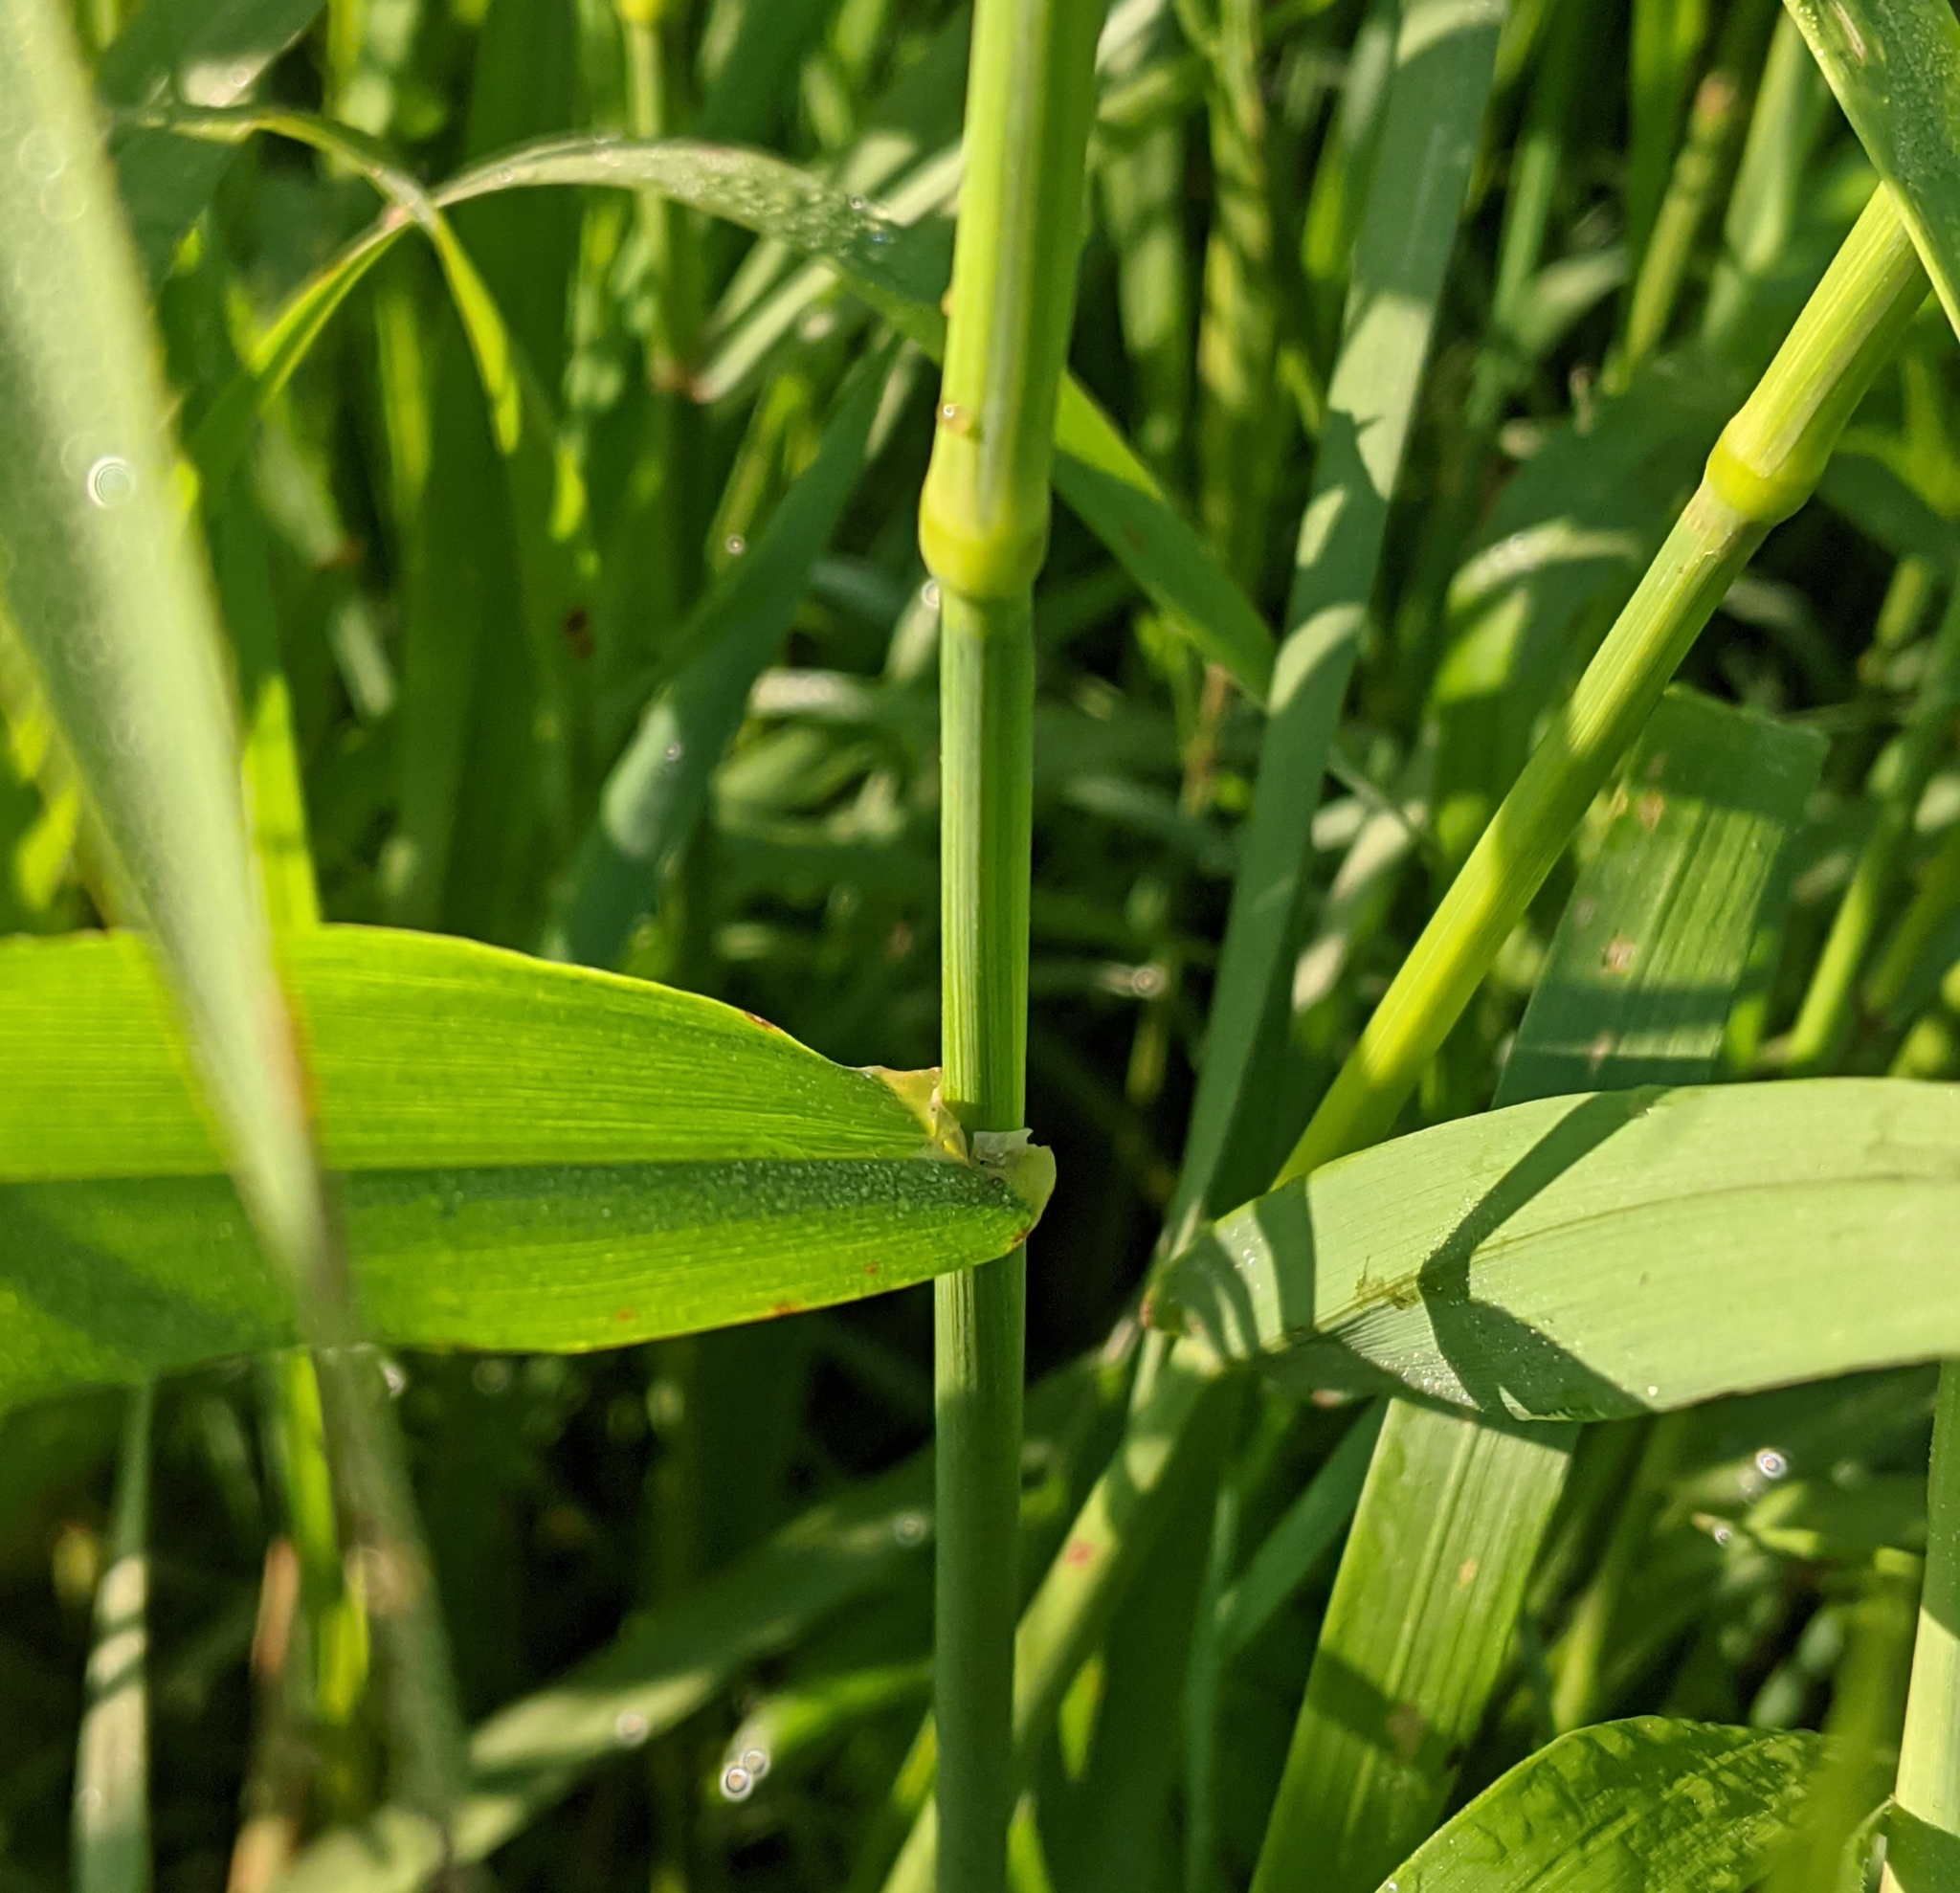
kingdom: Plantae
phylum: Tracheophyta
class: Liliopsida
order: Poales
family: Poaceae
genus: Phalaris
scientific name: Phalaris arundinacea
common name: Reed canary-grass
